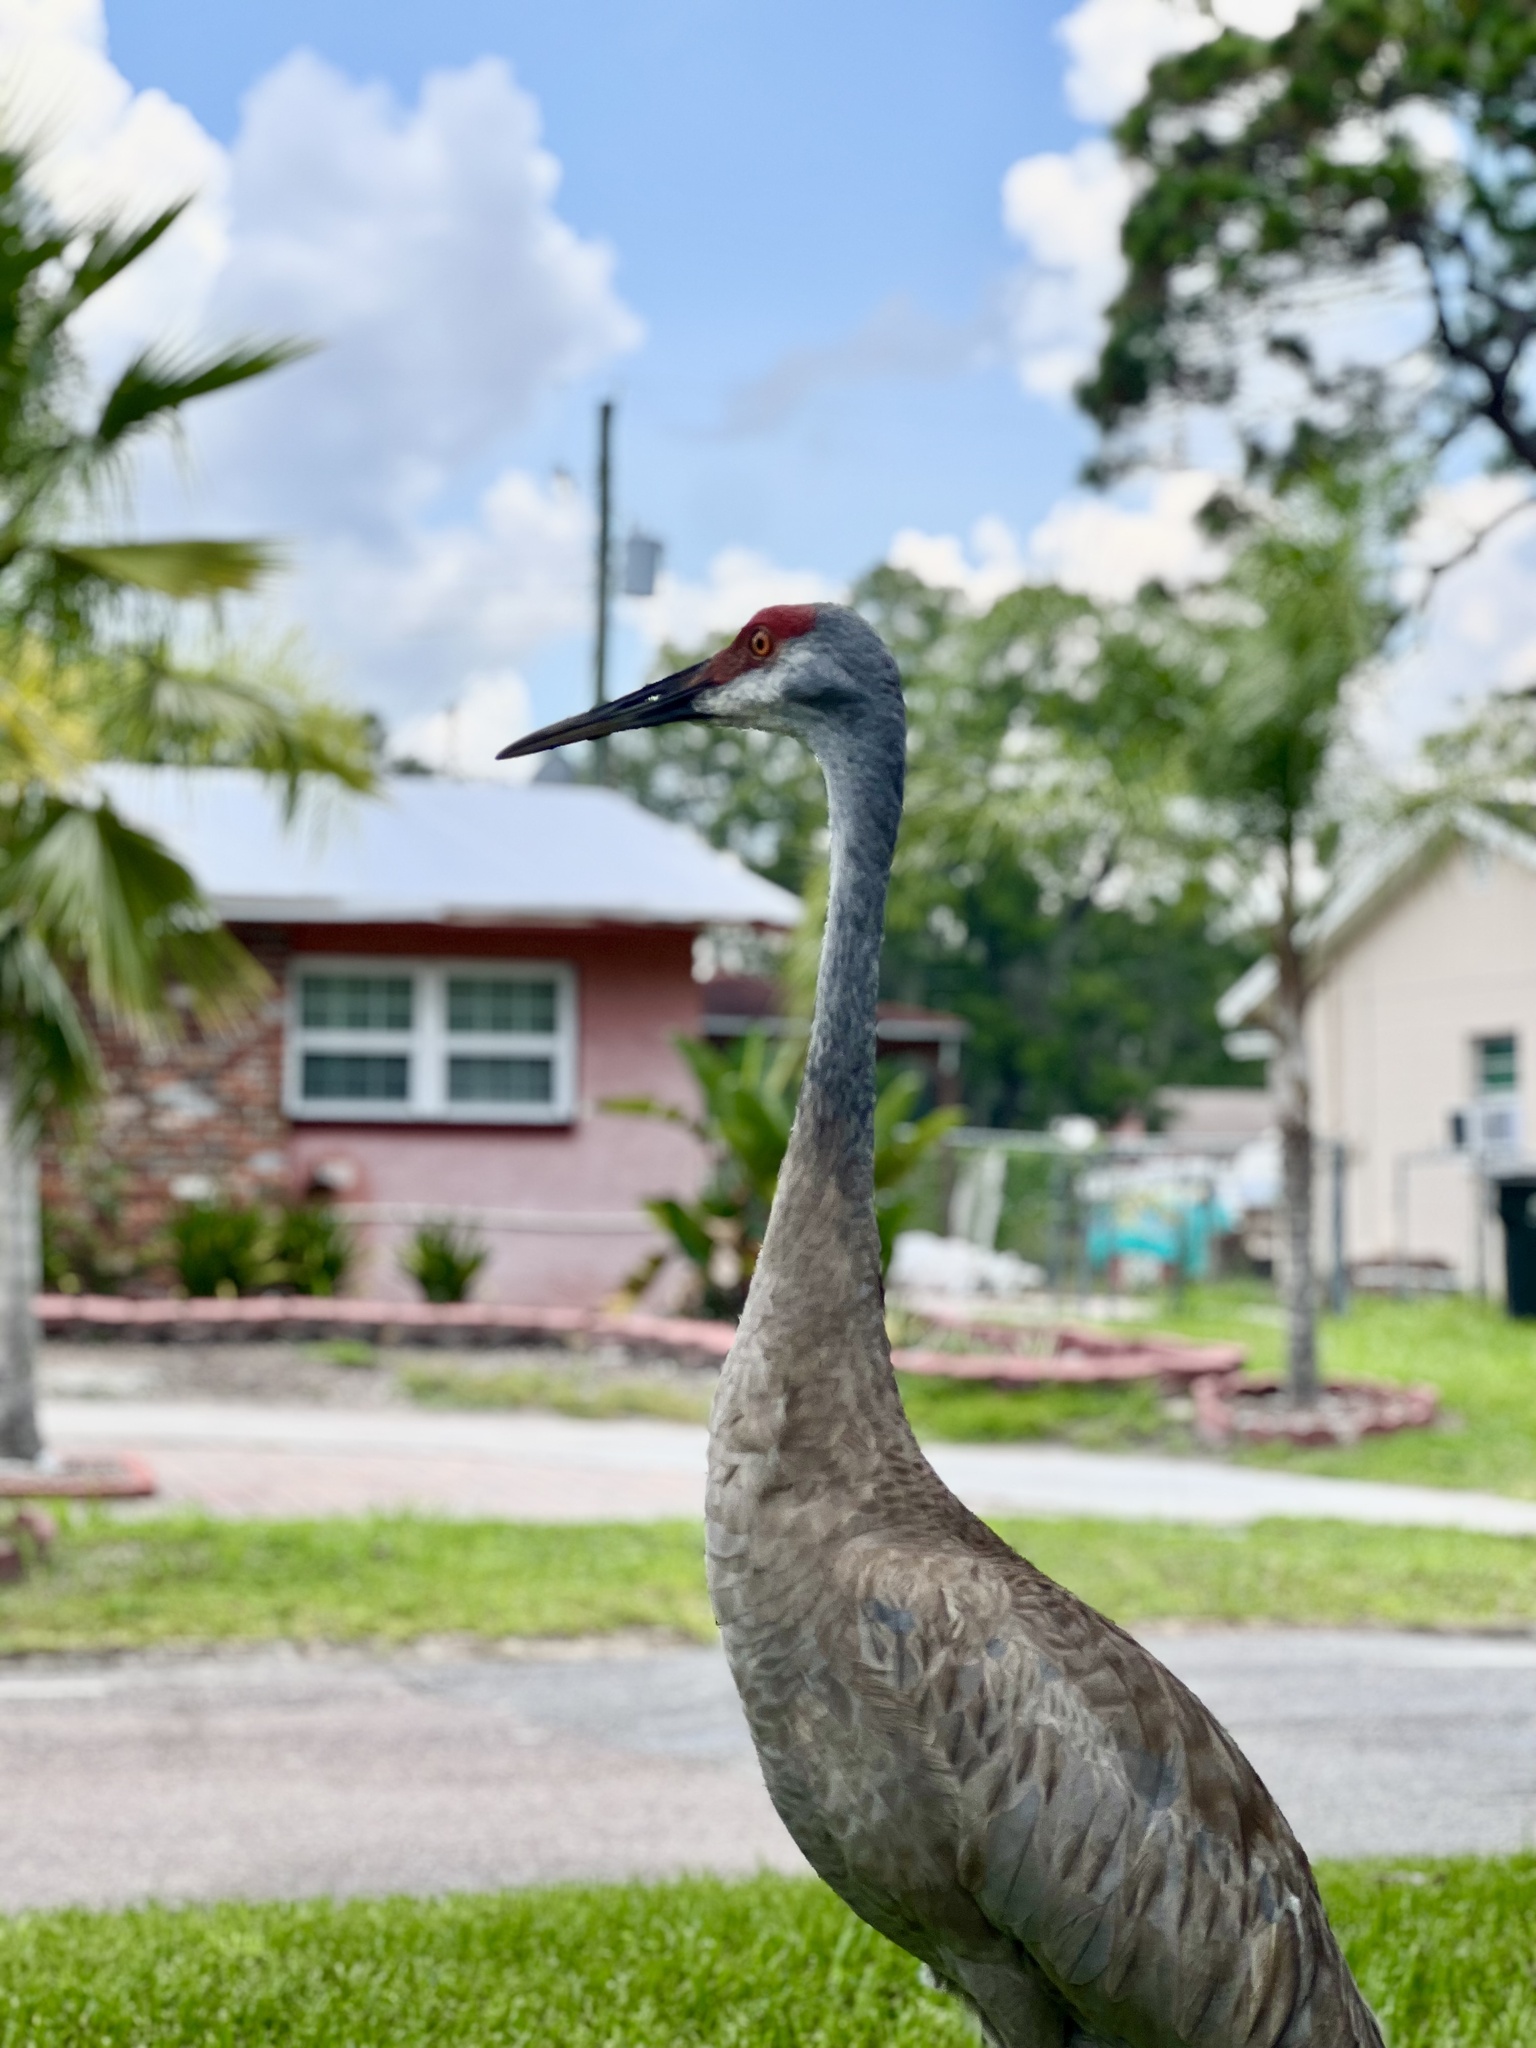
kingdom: Animalia
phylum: Chordata
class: Aves
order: Gruiformes
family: Gruidae
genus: Grus
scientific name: Grus canadensis
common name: Sandhill crane
